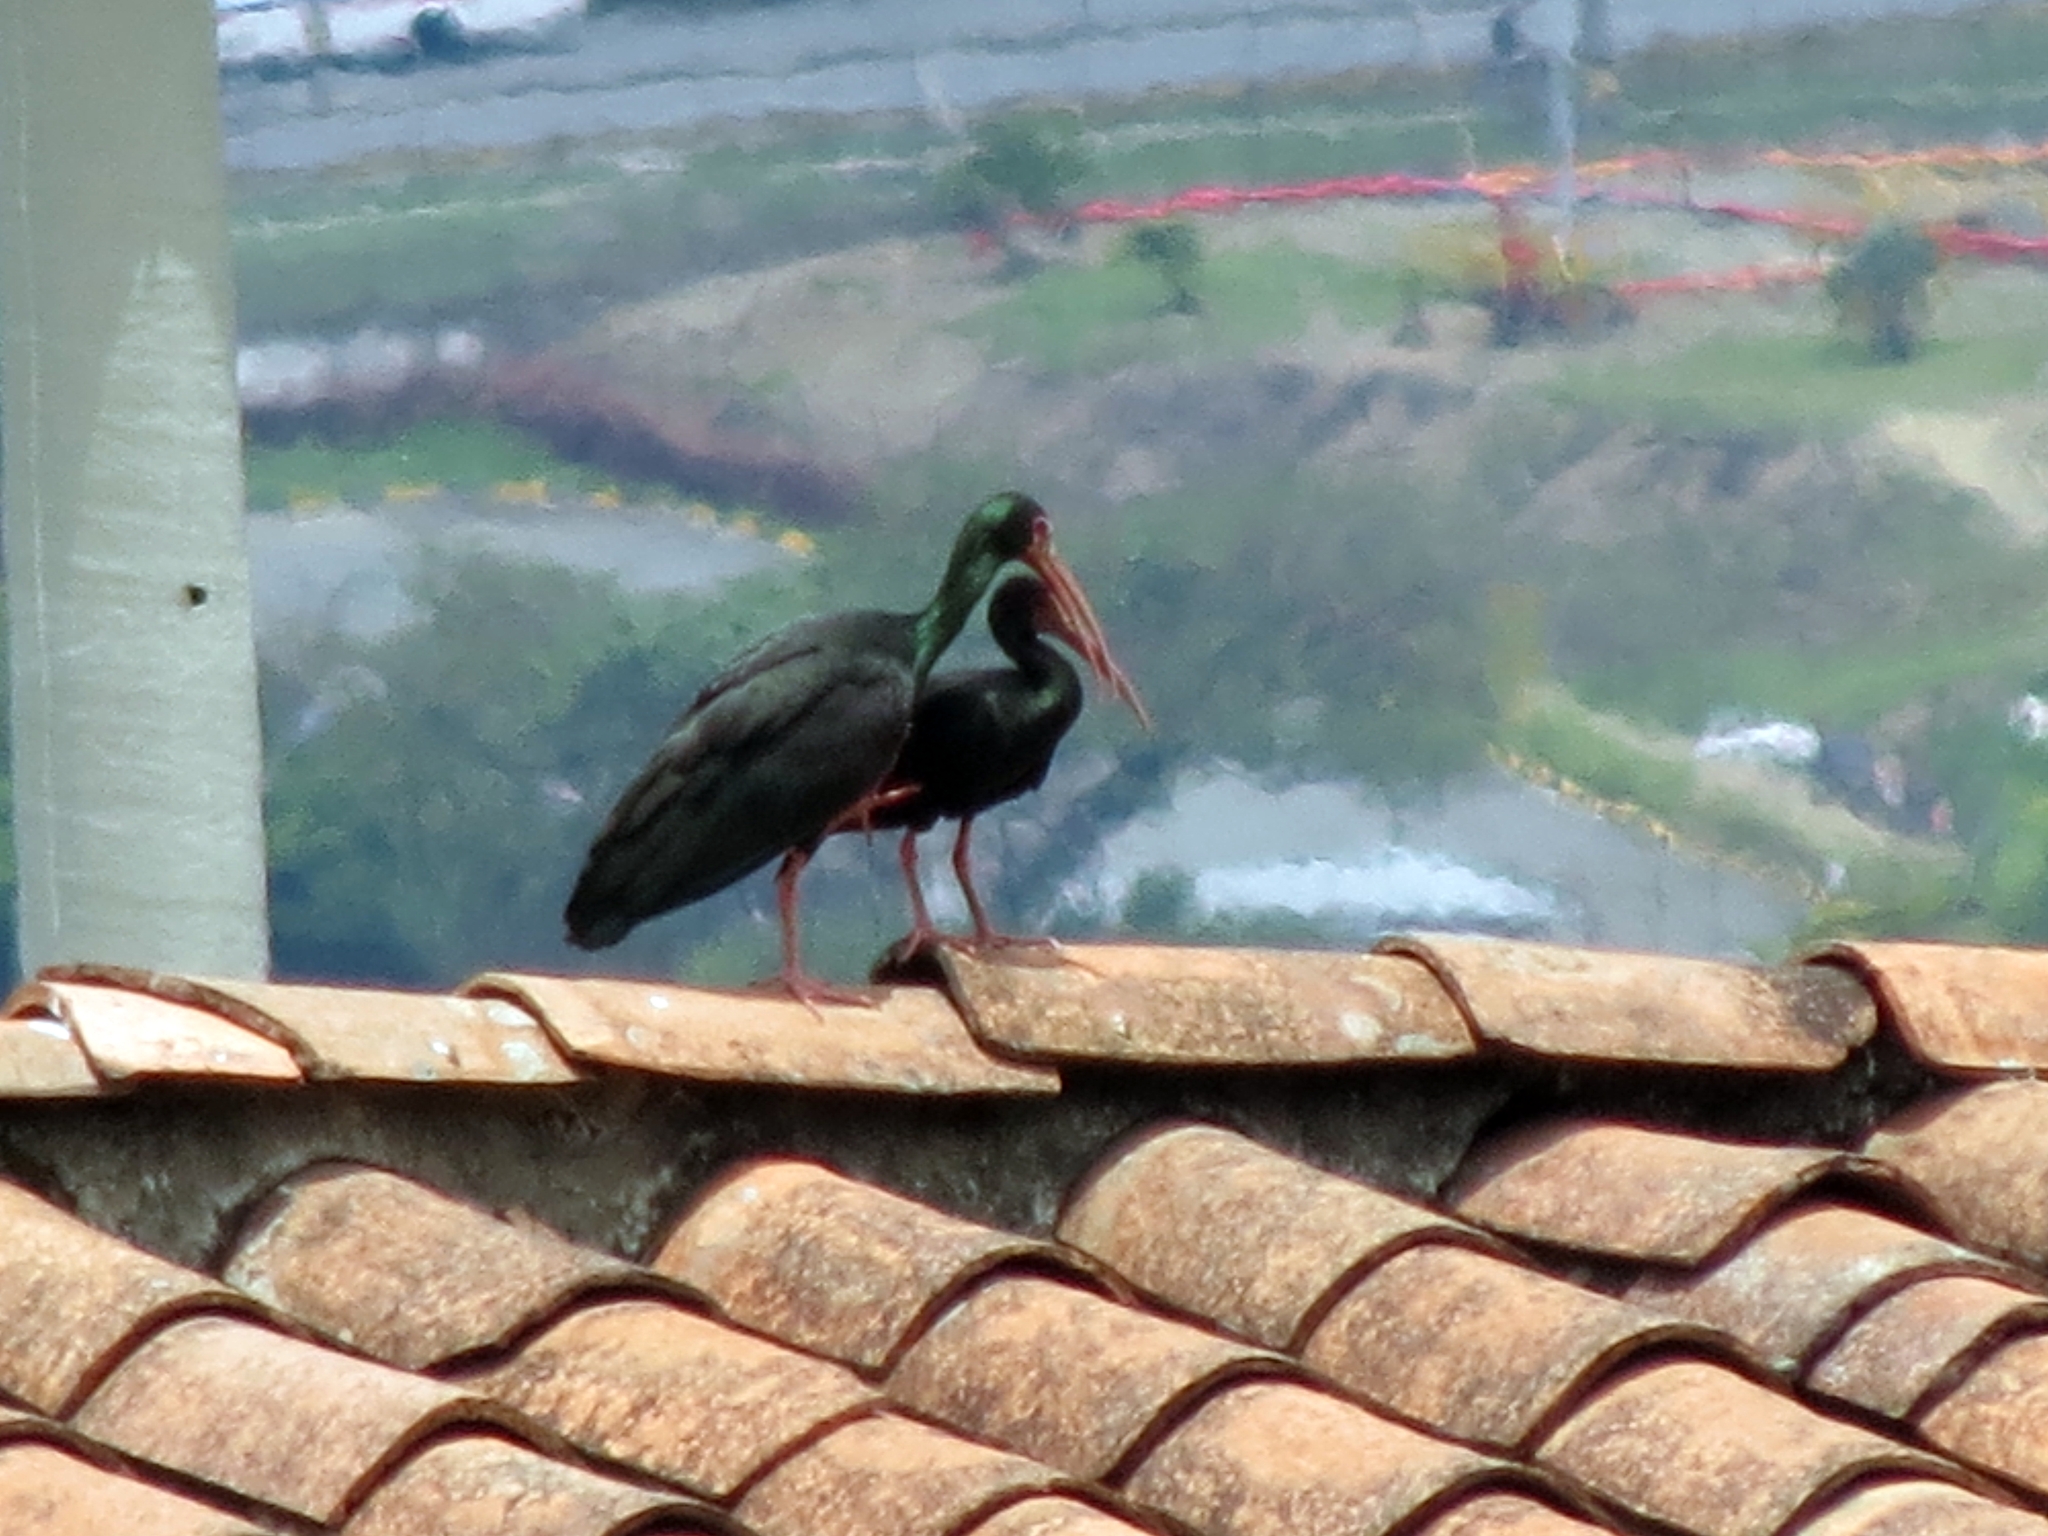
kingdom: Animalia
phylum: Chordata
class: Aves
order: Pelecaniformes
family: Threskiornithidae
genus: Phimosus
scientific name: Phimosus infuscatus
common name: Bare-faced ibis
